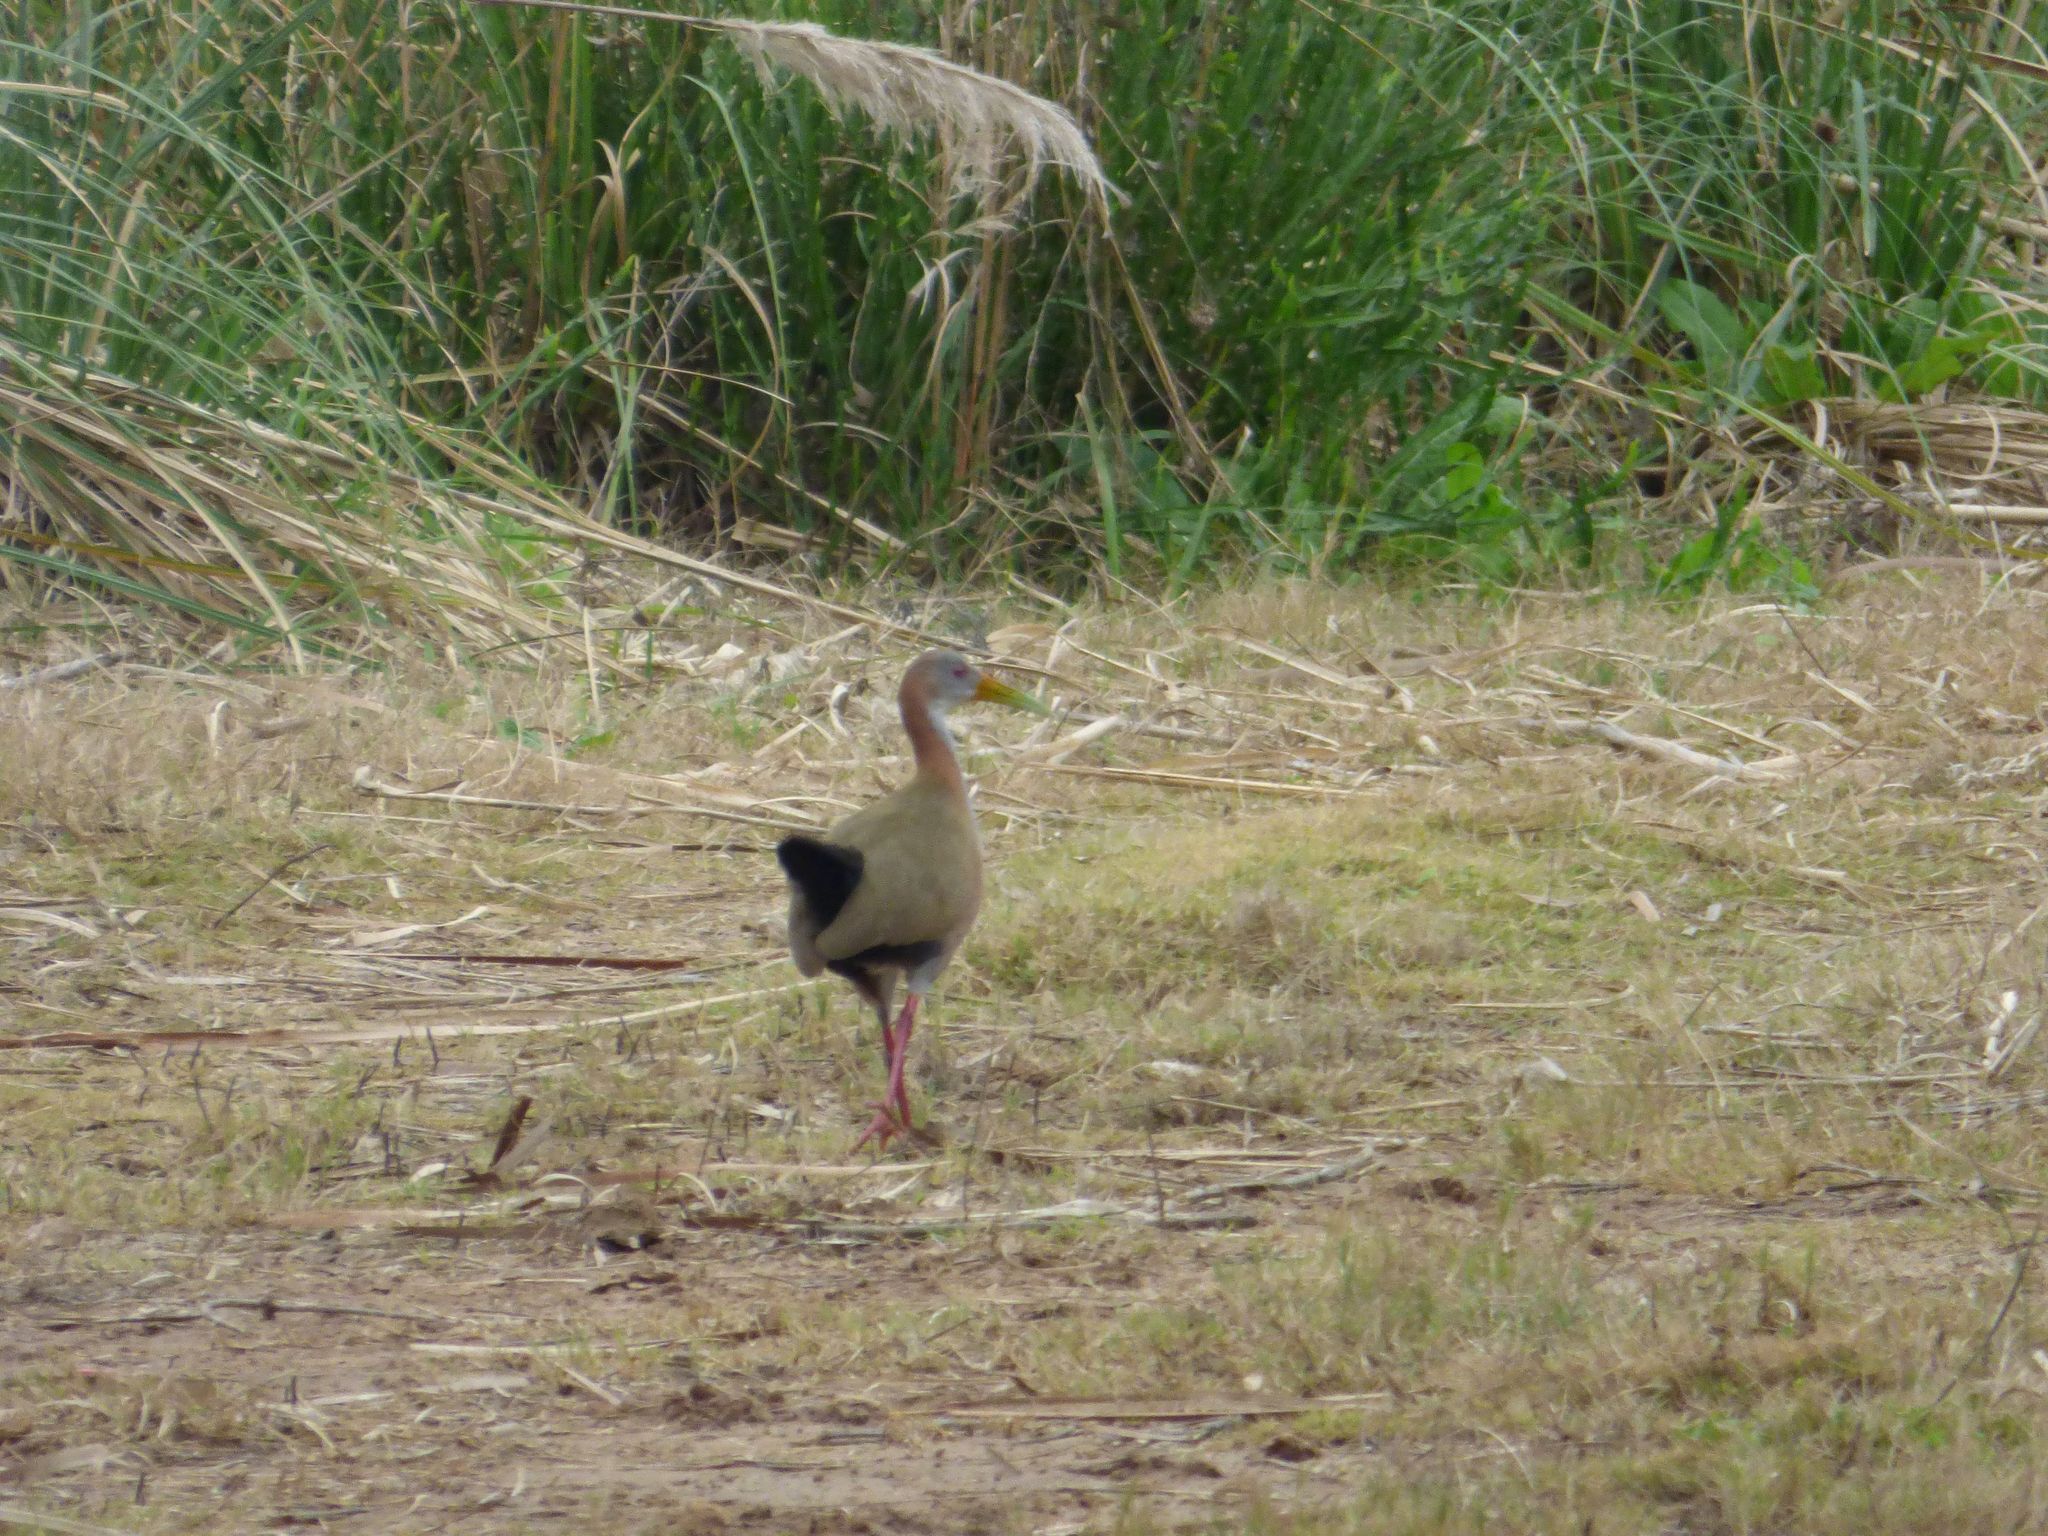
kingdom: Animalia
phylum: Chordata
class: Aves
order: Gruiformes
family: Rallidae
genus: Aramides
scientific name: Aramides ypecaha
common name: Giant wood rail
